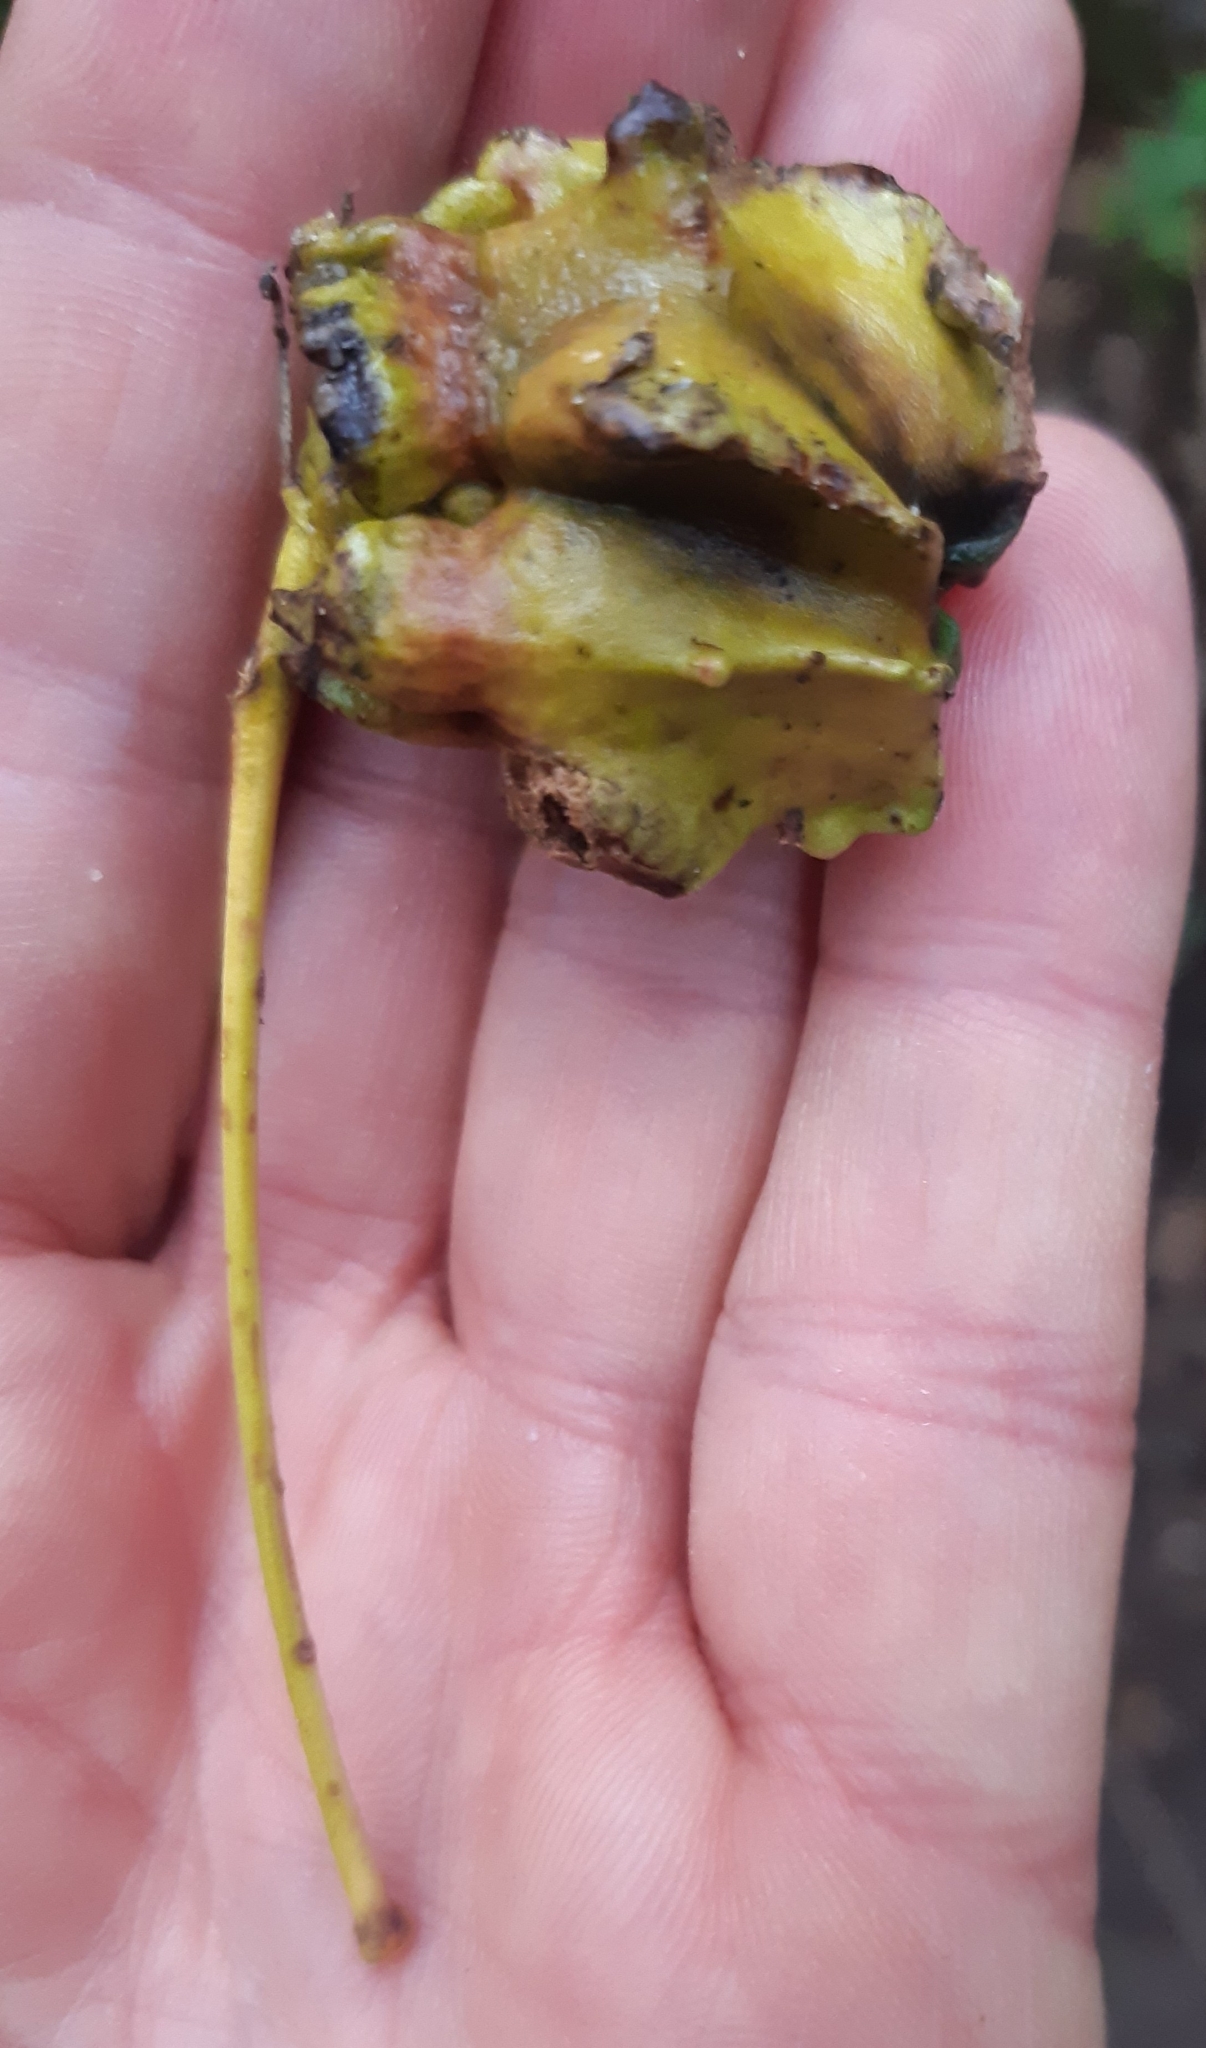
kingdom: Animalia
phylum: Arthropoda
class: Insecta
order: Hymenoptera
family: Cynipidae
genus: Andricus
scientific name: Andricus quercuscalicis
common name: Knopper gall
